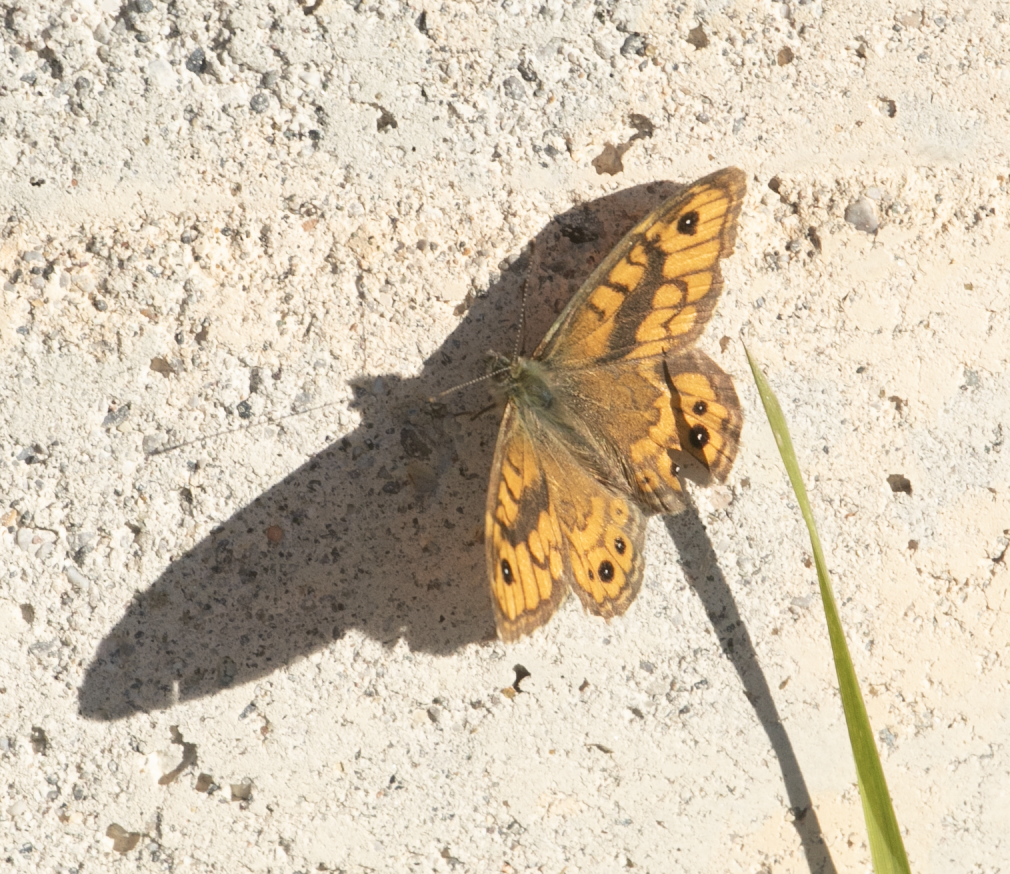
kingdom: Animalia
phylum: Arthropoda
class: Insecta
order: Lepidoptera
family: Nymphalidae
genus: Pararge
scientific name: Pararge Lasiommata megera
